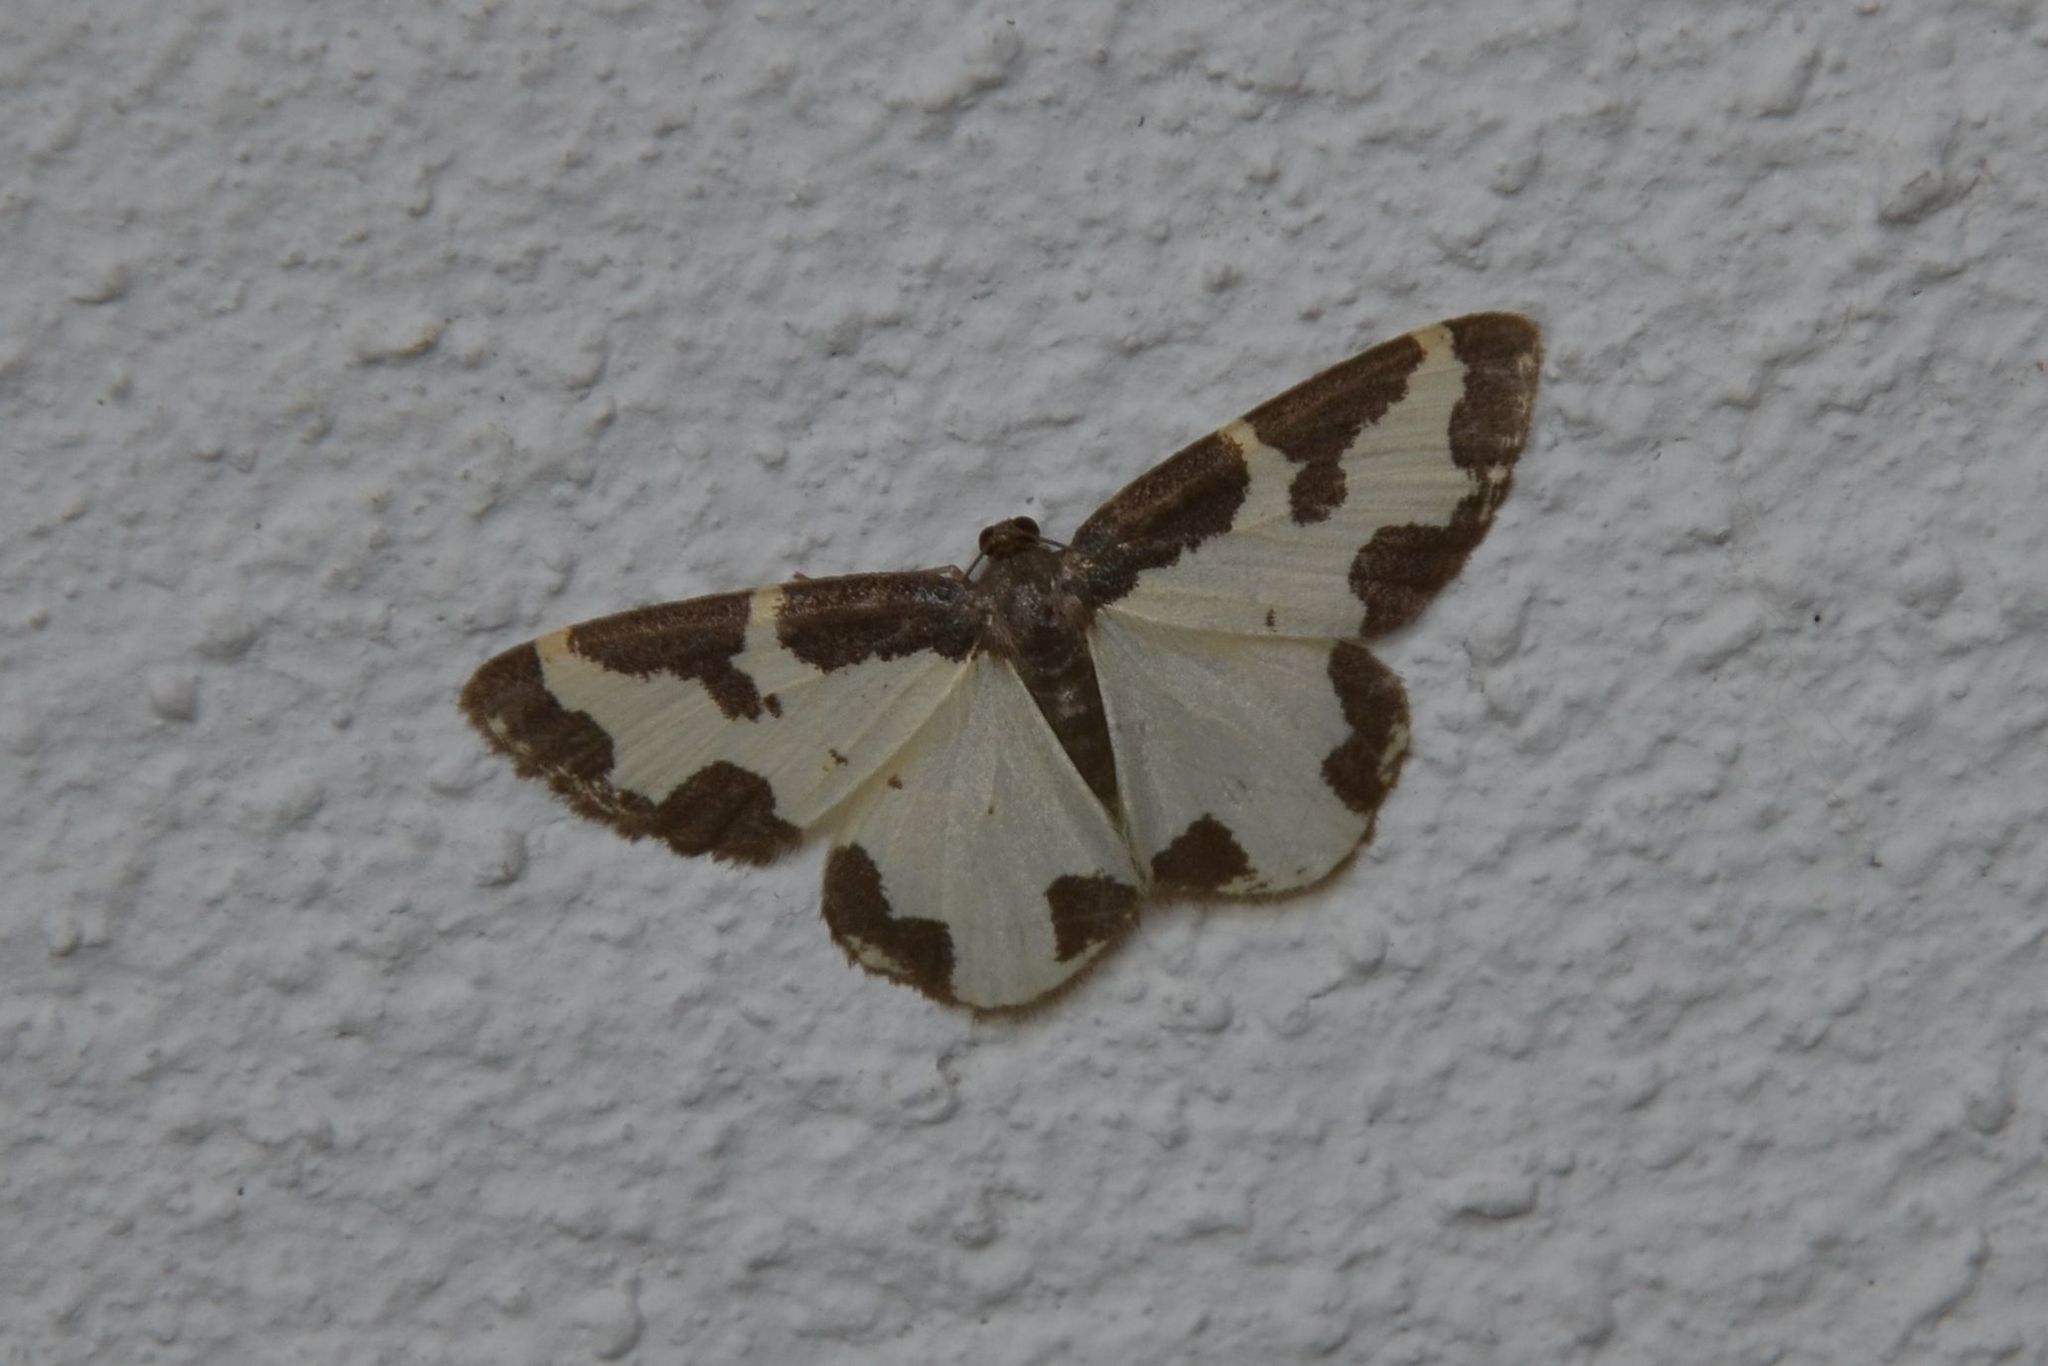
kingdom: Animalia
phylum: Arthropoda
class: Insecta
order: Lepidoptera
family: Geometridae
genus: Lomaspilis
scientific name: Lomaspilis marginata
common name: Clouded border
